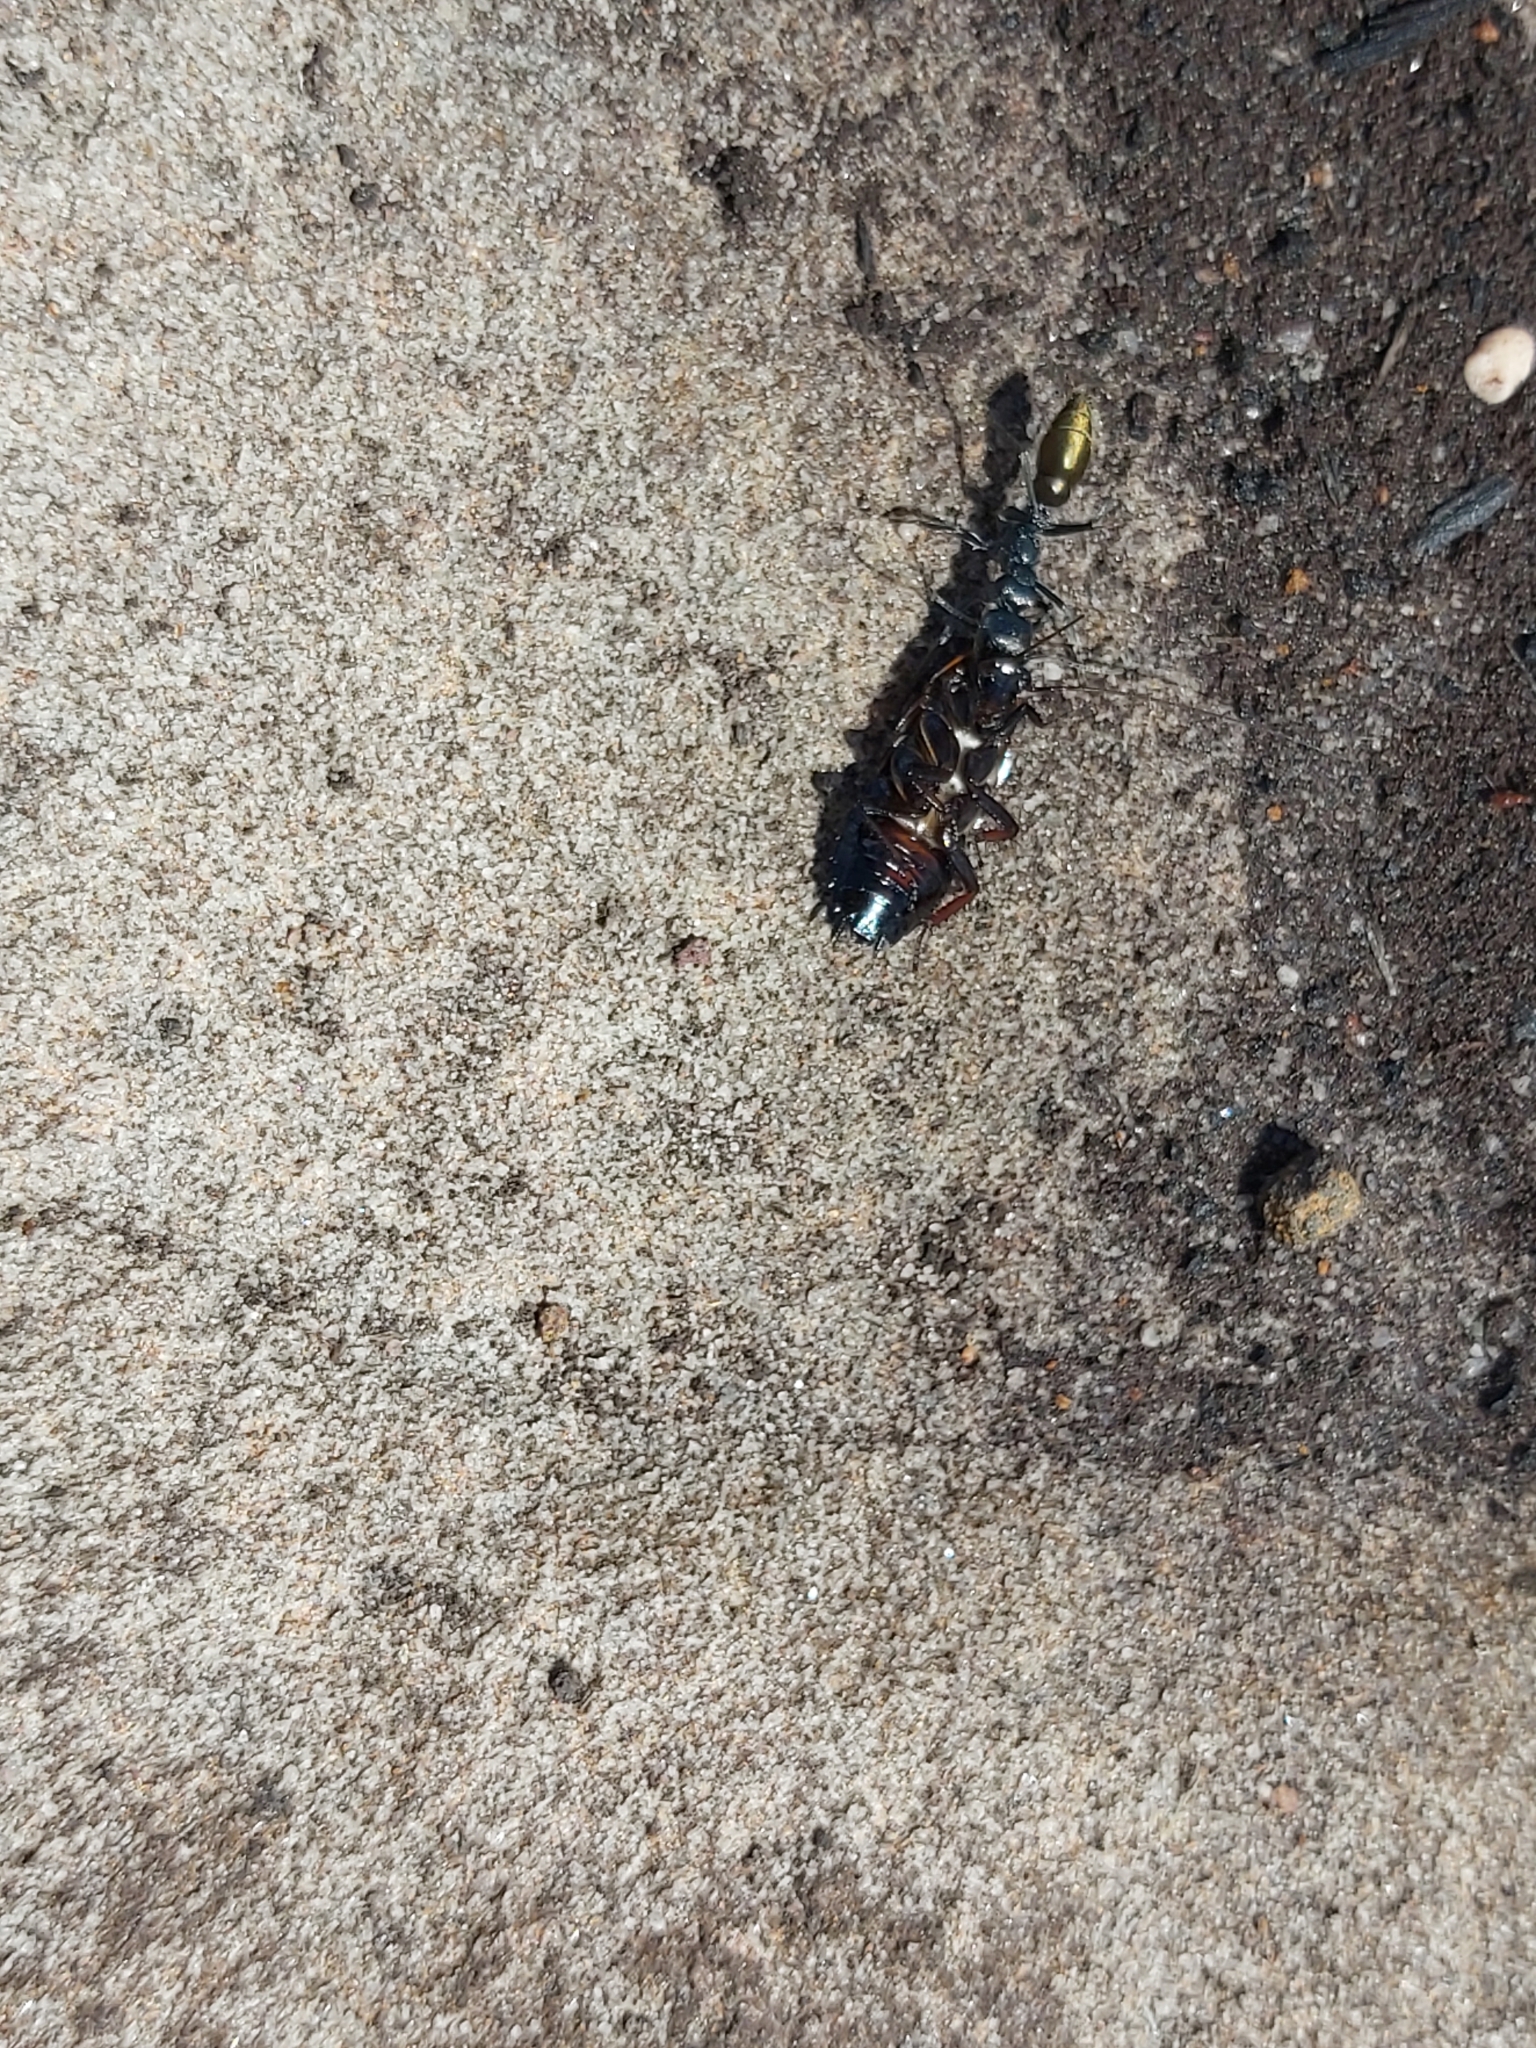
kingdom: Animalia
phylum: Arthropoda
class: Insecta
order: Hymenoptera
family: Formicidae
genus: Myrmecia
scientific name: Myrmecia piliventris
